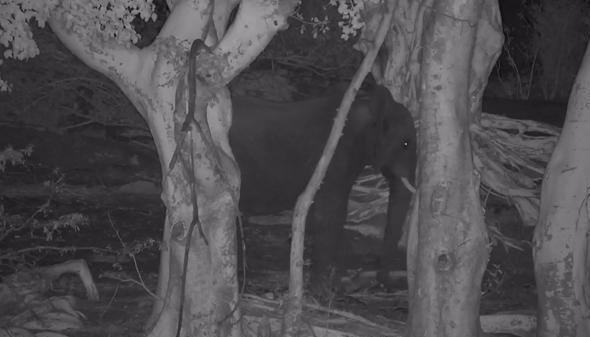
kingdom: Animalia
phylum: Chordata
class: Mammalia
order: Proboscidea
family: Elephantidae
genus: Loxodonta
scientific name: Loxodonta africana
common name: African elephant
